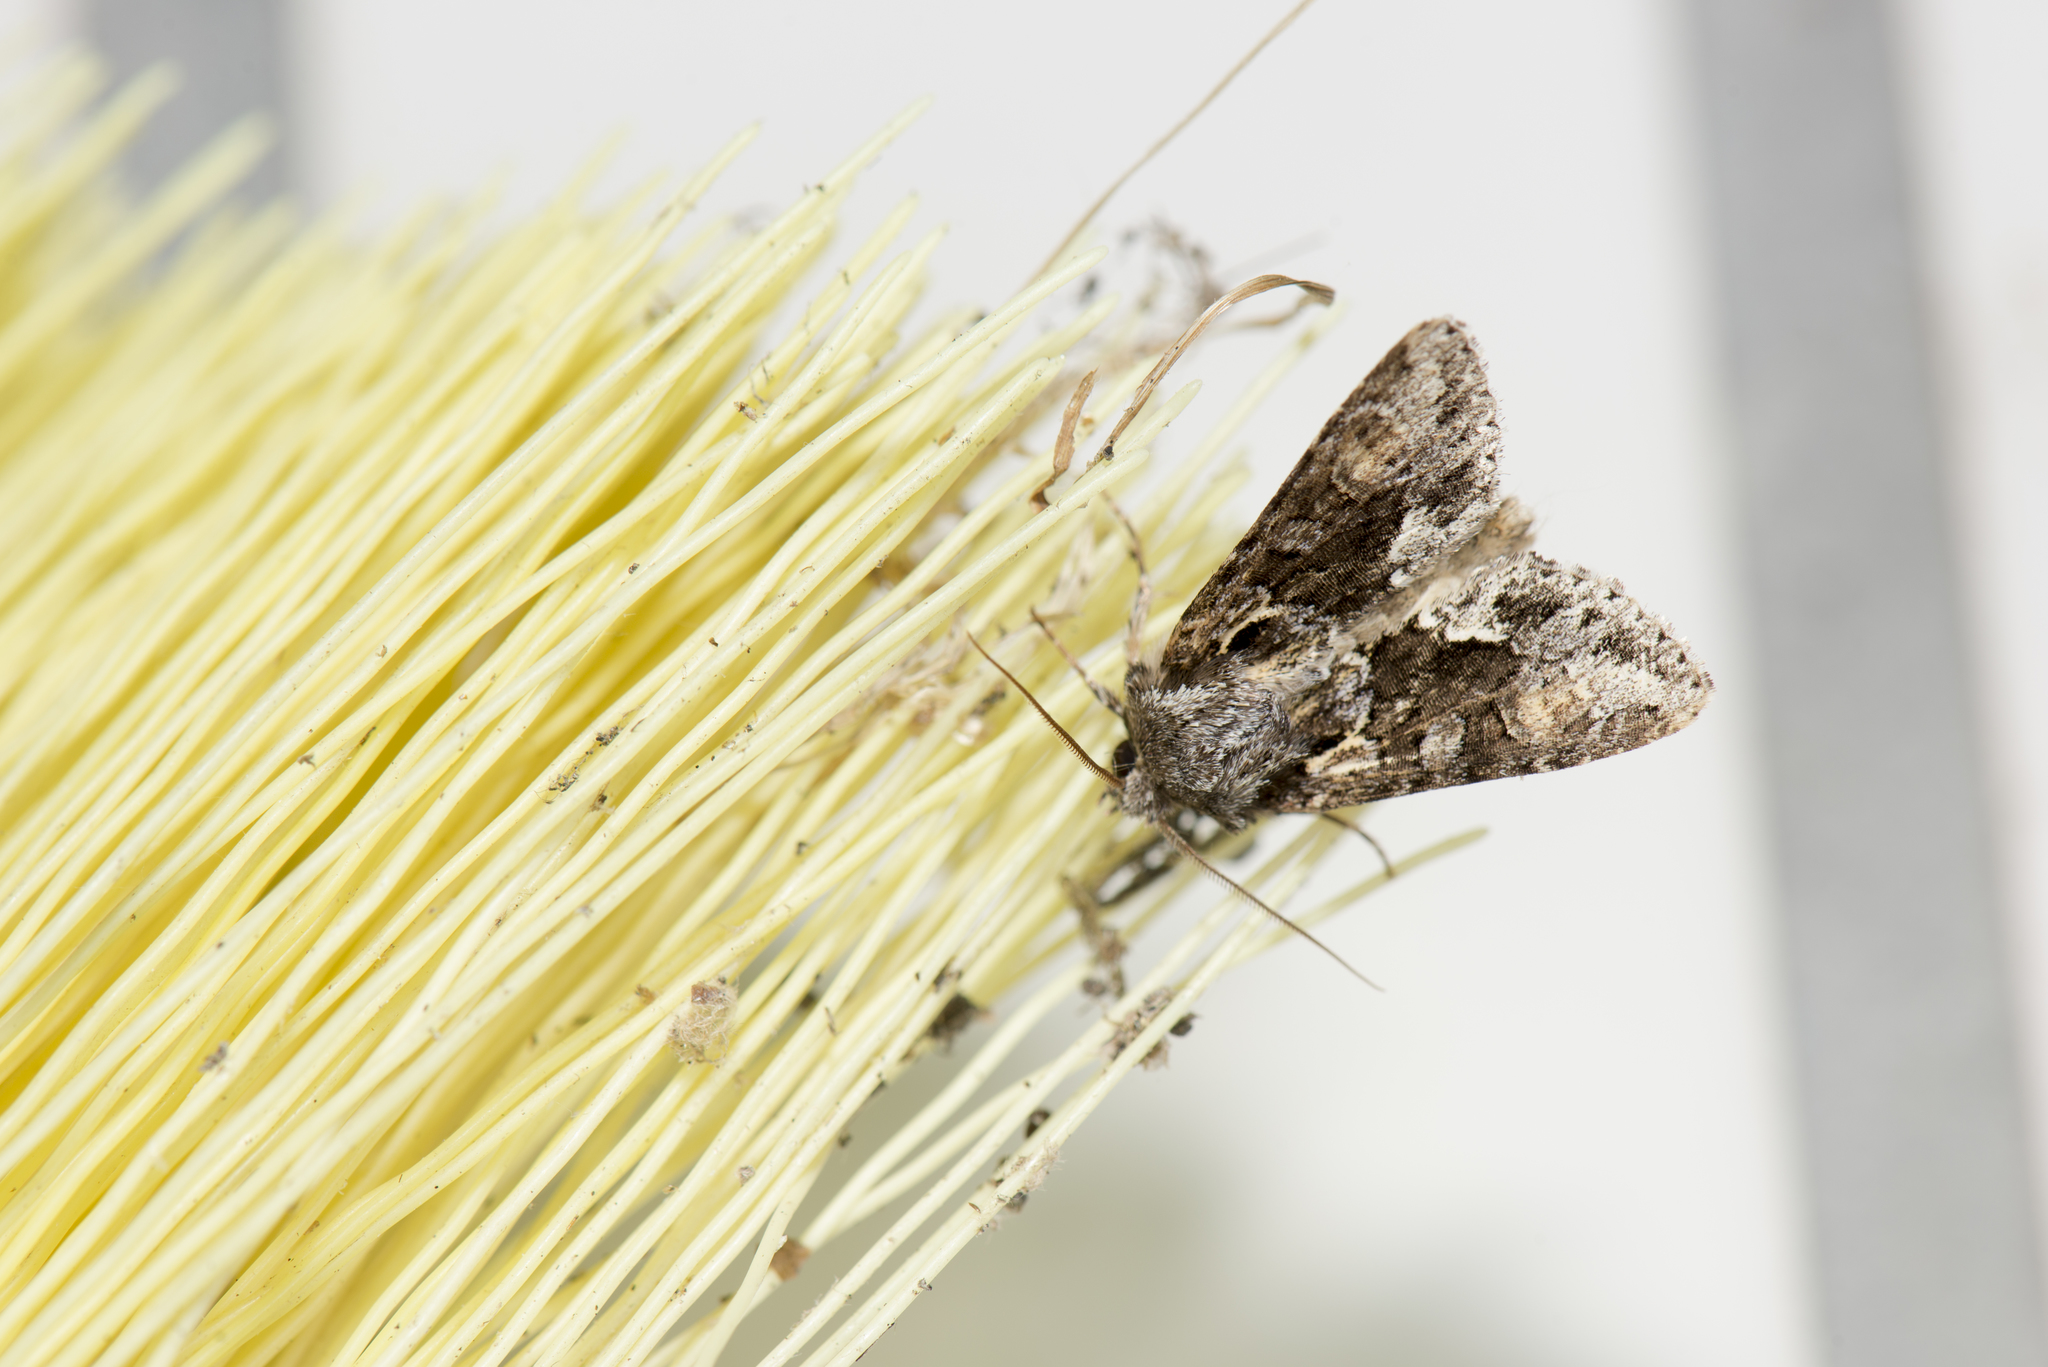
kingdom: Animalia
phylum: Arthropoda
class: Insecta
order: Lepidoptera
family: Noctuidae
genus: Xylopolia
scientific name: Xylopolia fulvireniforma
